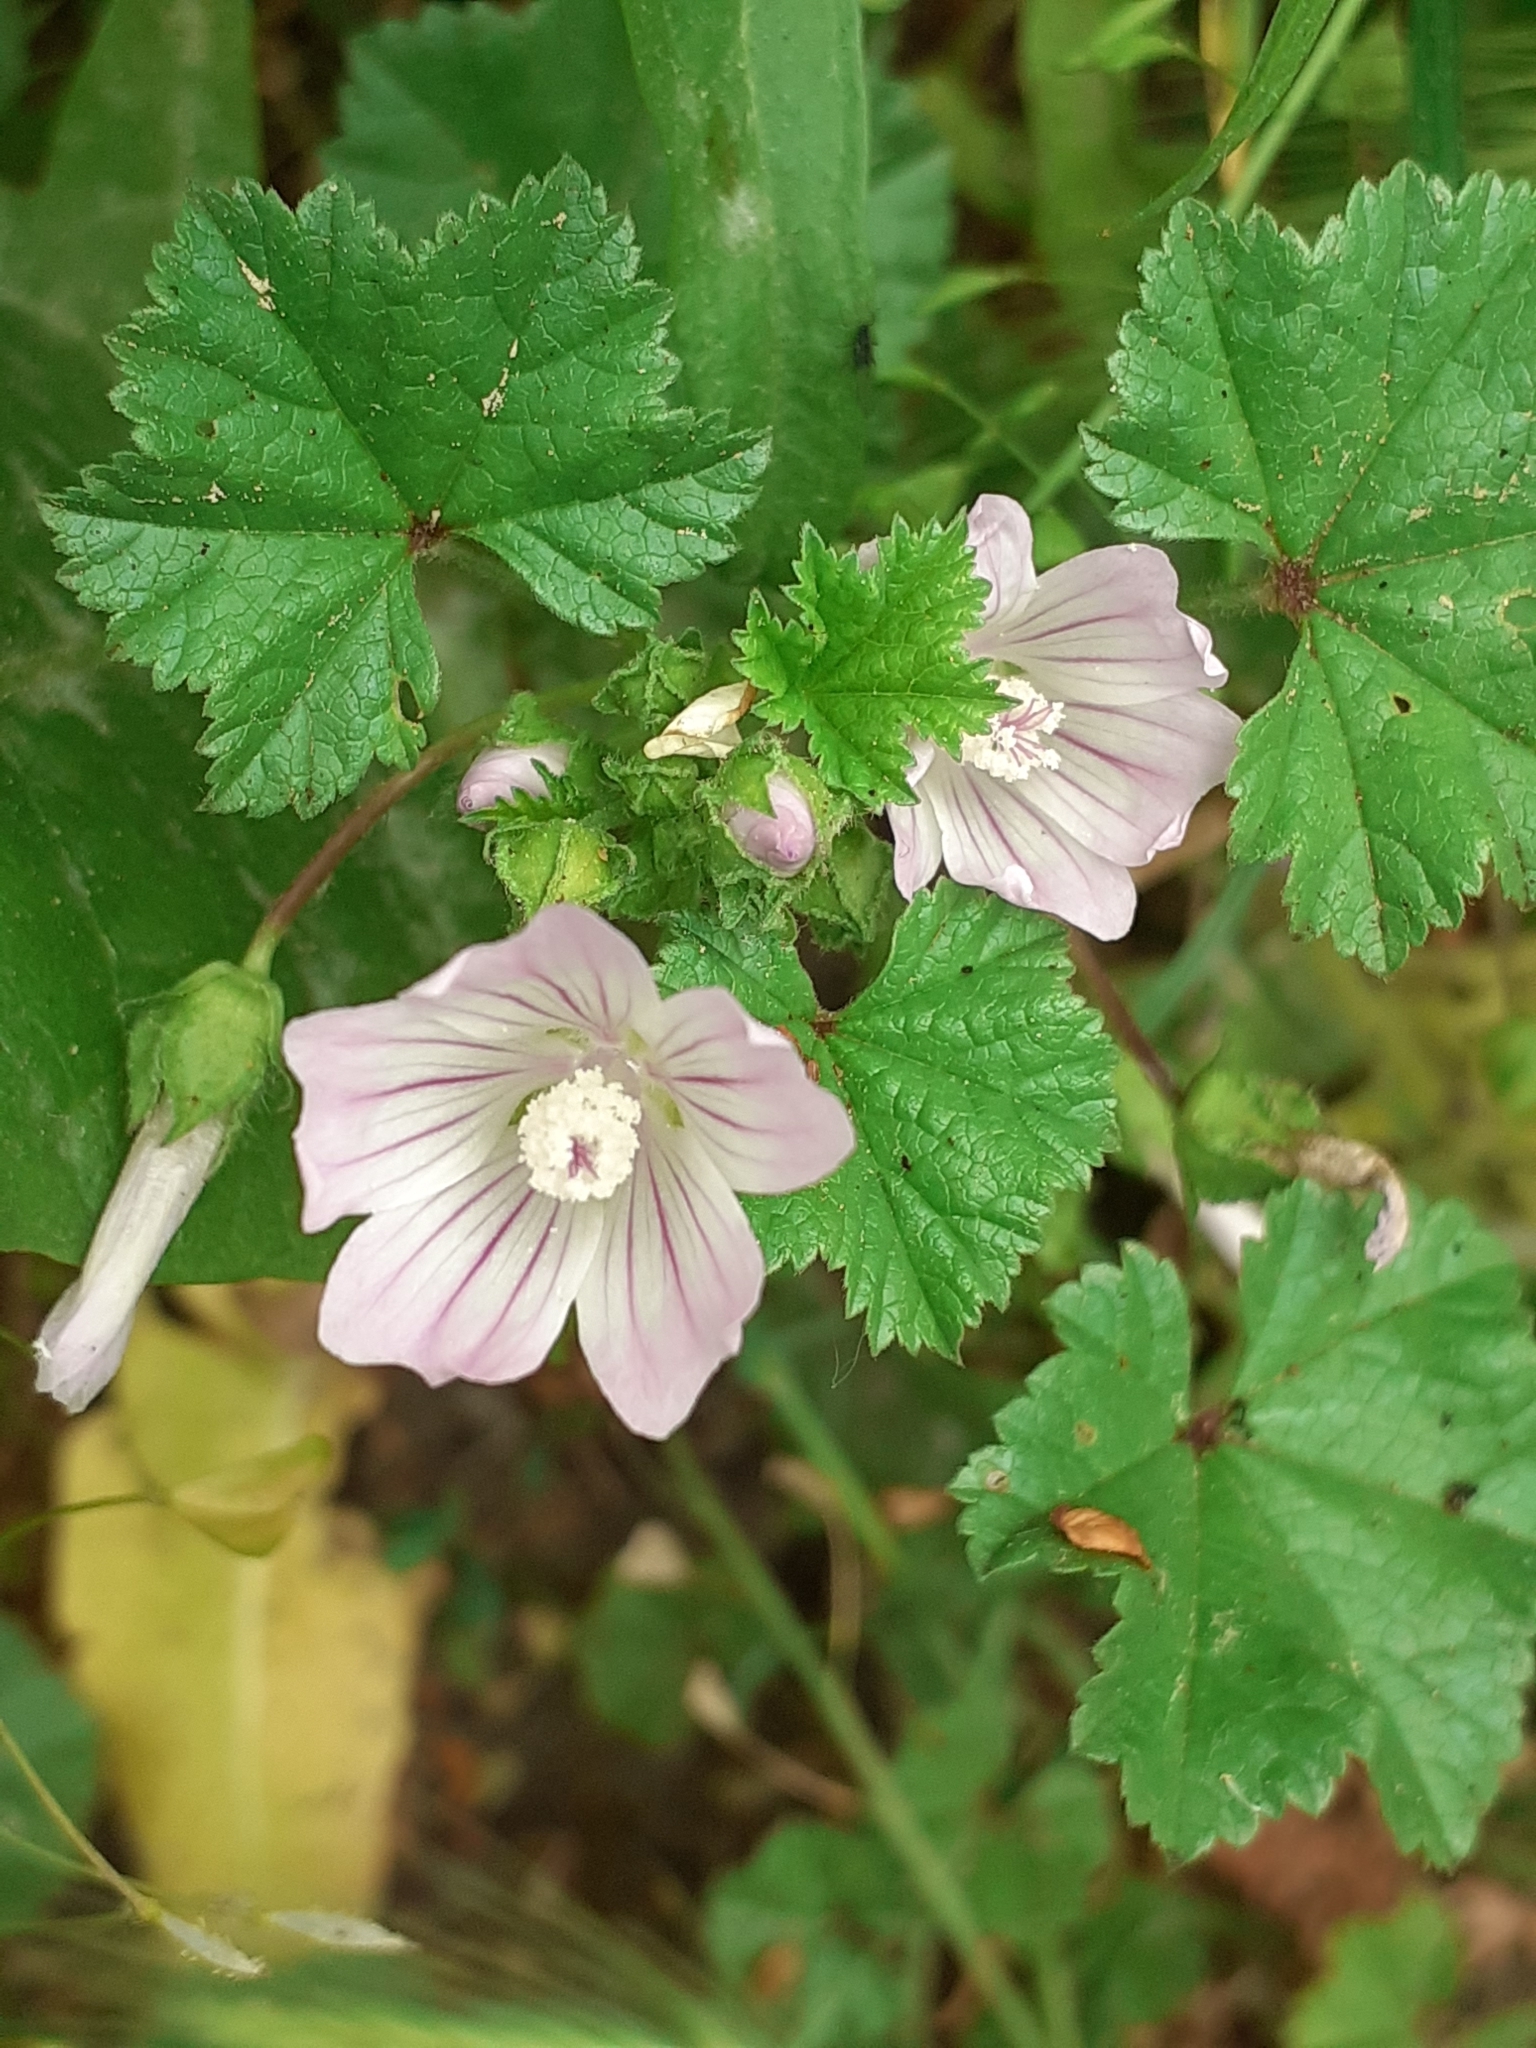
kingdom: Plantae
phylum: Tracheophyta
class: Magnoliopsida
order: Malvales
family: Malvaceae
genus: Malva
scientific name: Malva neglecta
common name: Common mallow
